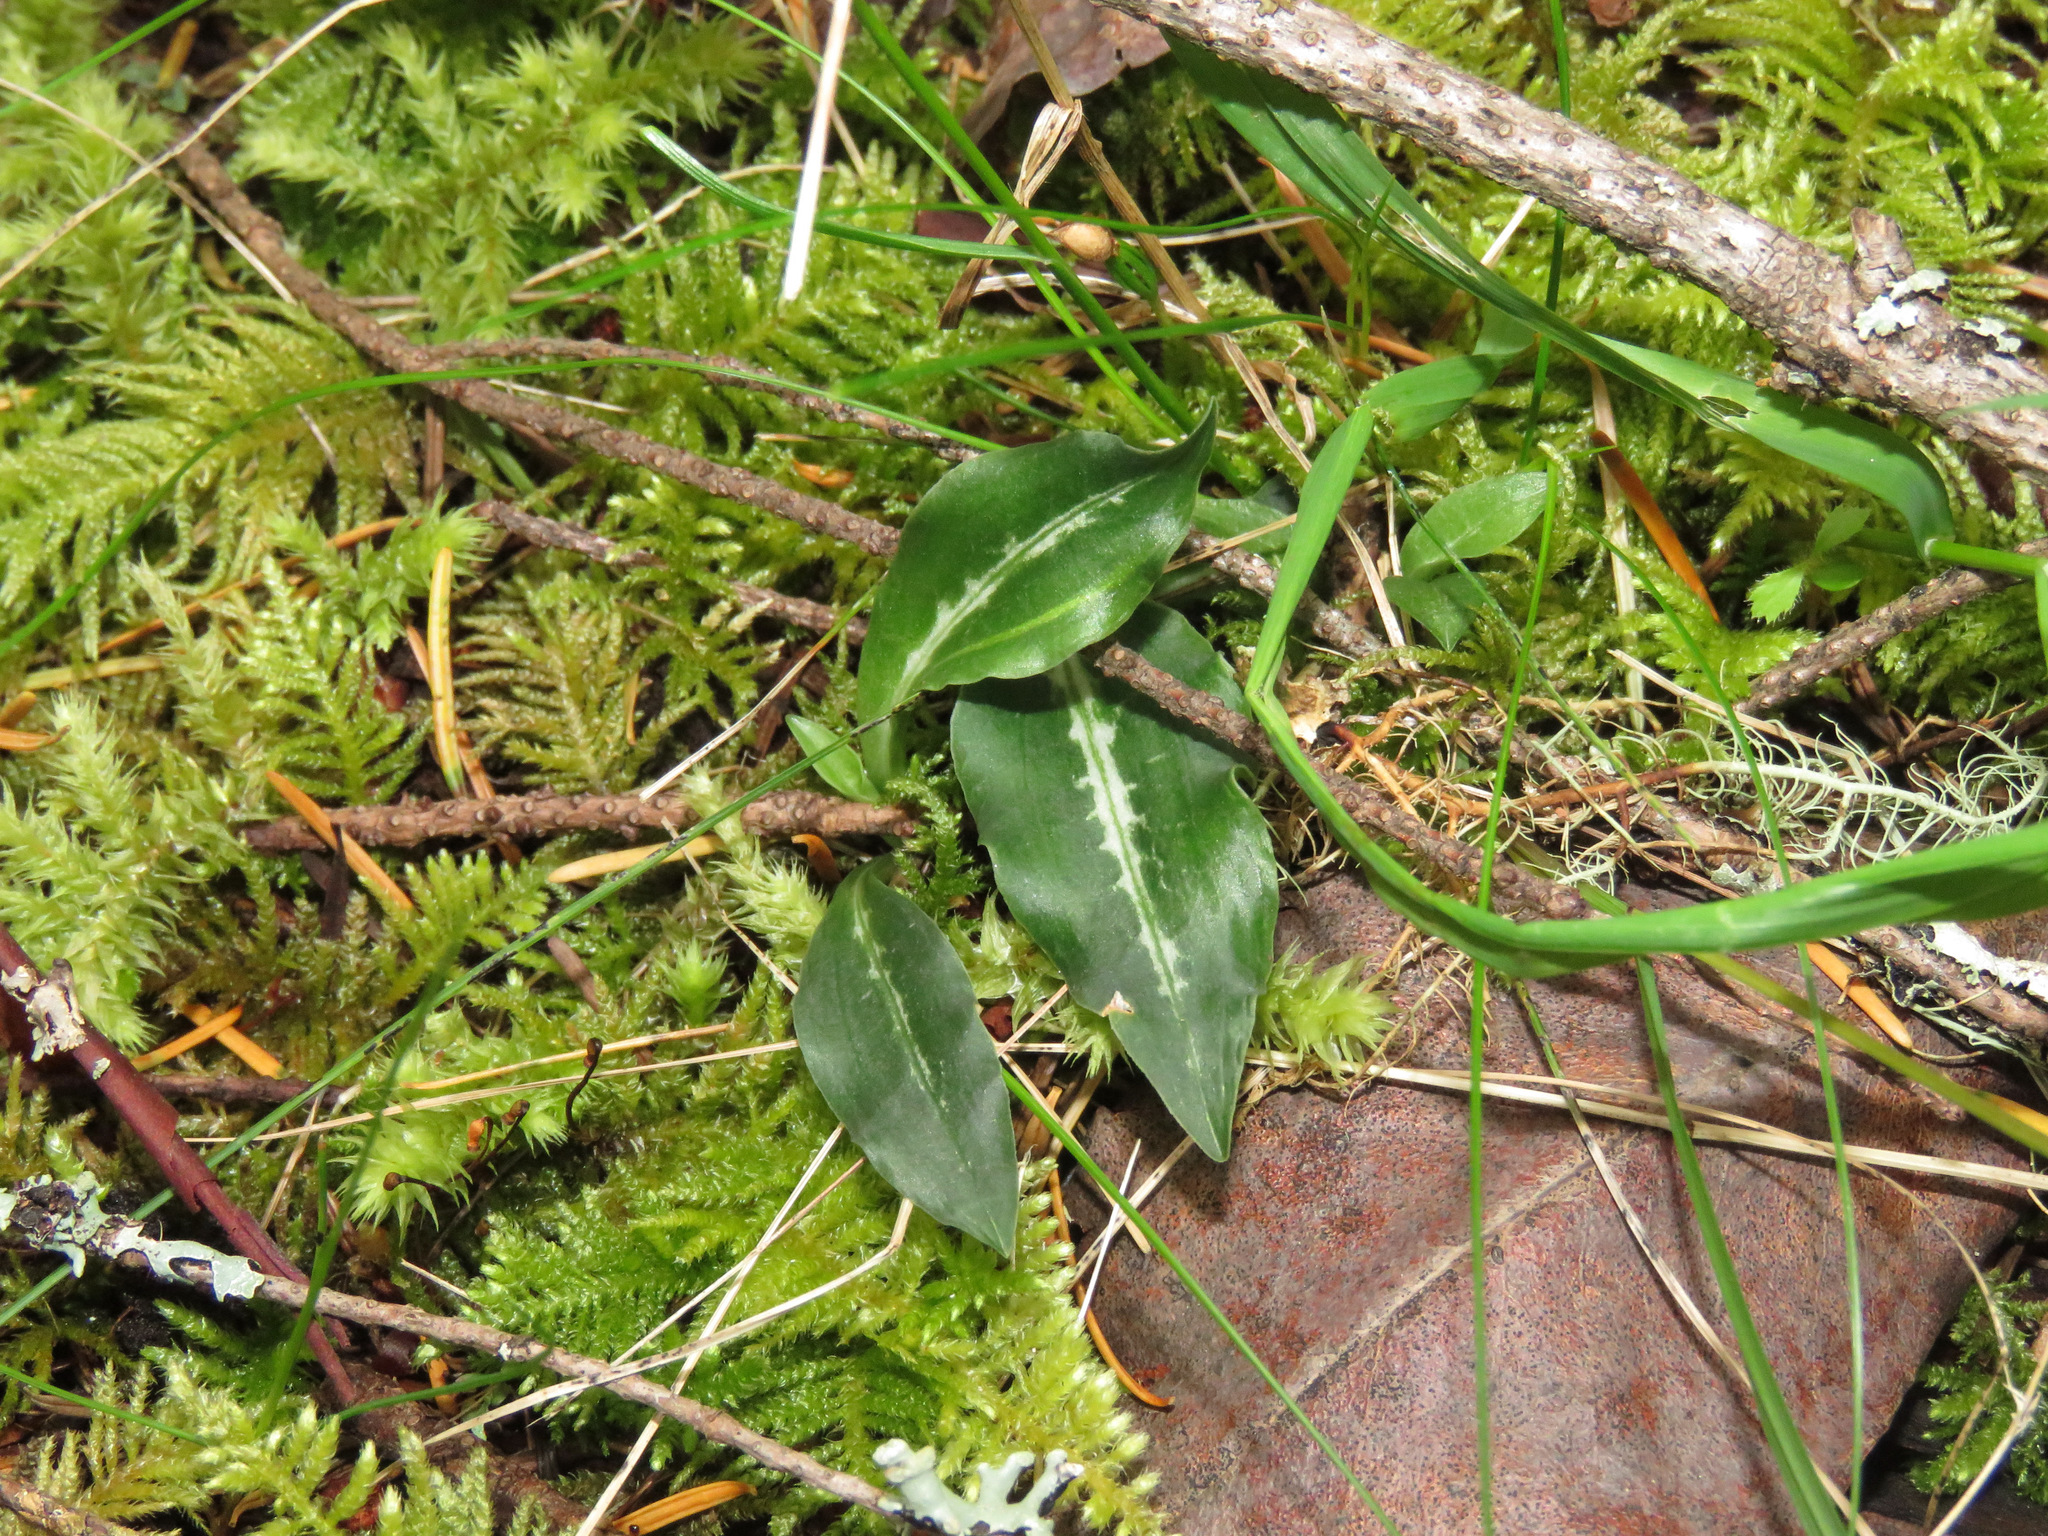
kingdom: Plantae
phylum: Tracheophyta
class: Liliopsida
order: Asparagales
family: Orchidaceae
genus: Goodyera
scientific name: Goodyera oblongifolia
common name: Giant rattlesnake-plantain
